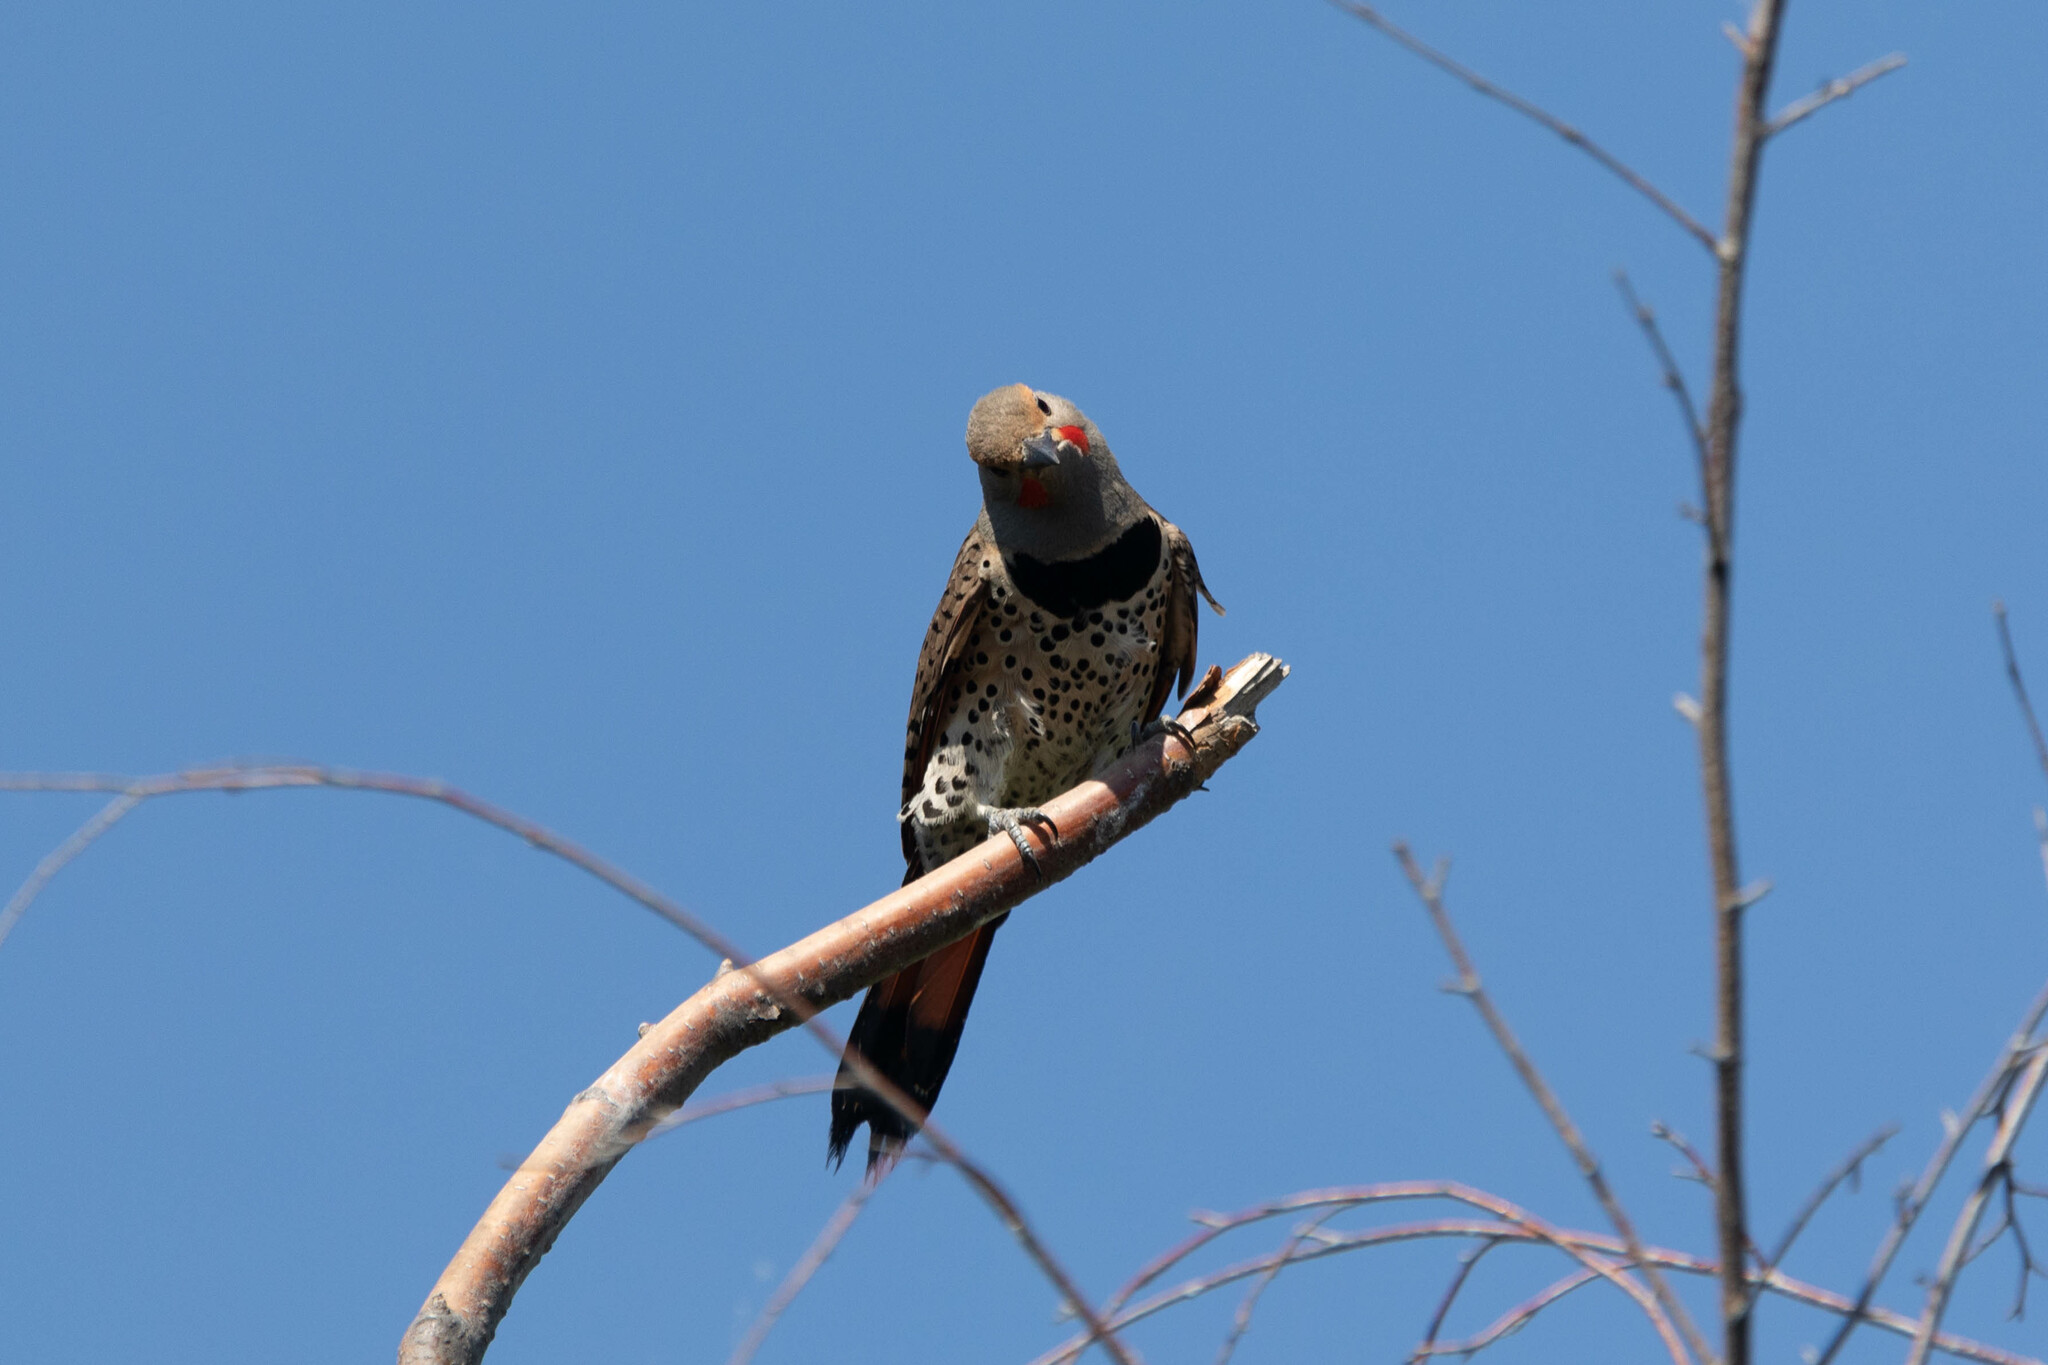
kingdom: Animalia
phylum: Chordata
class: Aves
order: Piciformes
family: Picidae
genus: Colaptes
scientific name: Colaptes auratus
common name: Northern flicker
